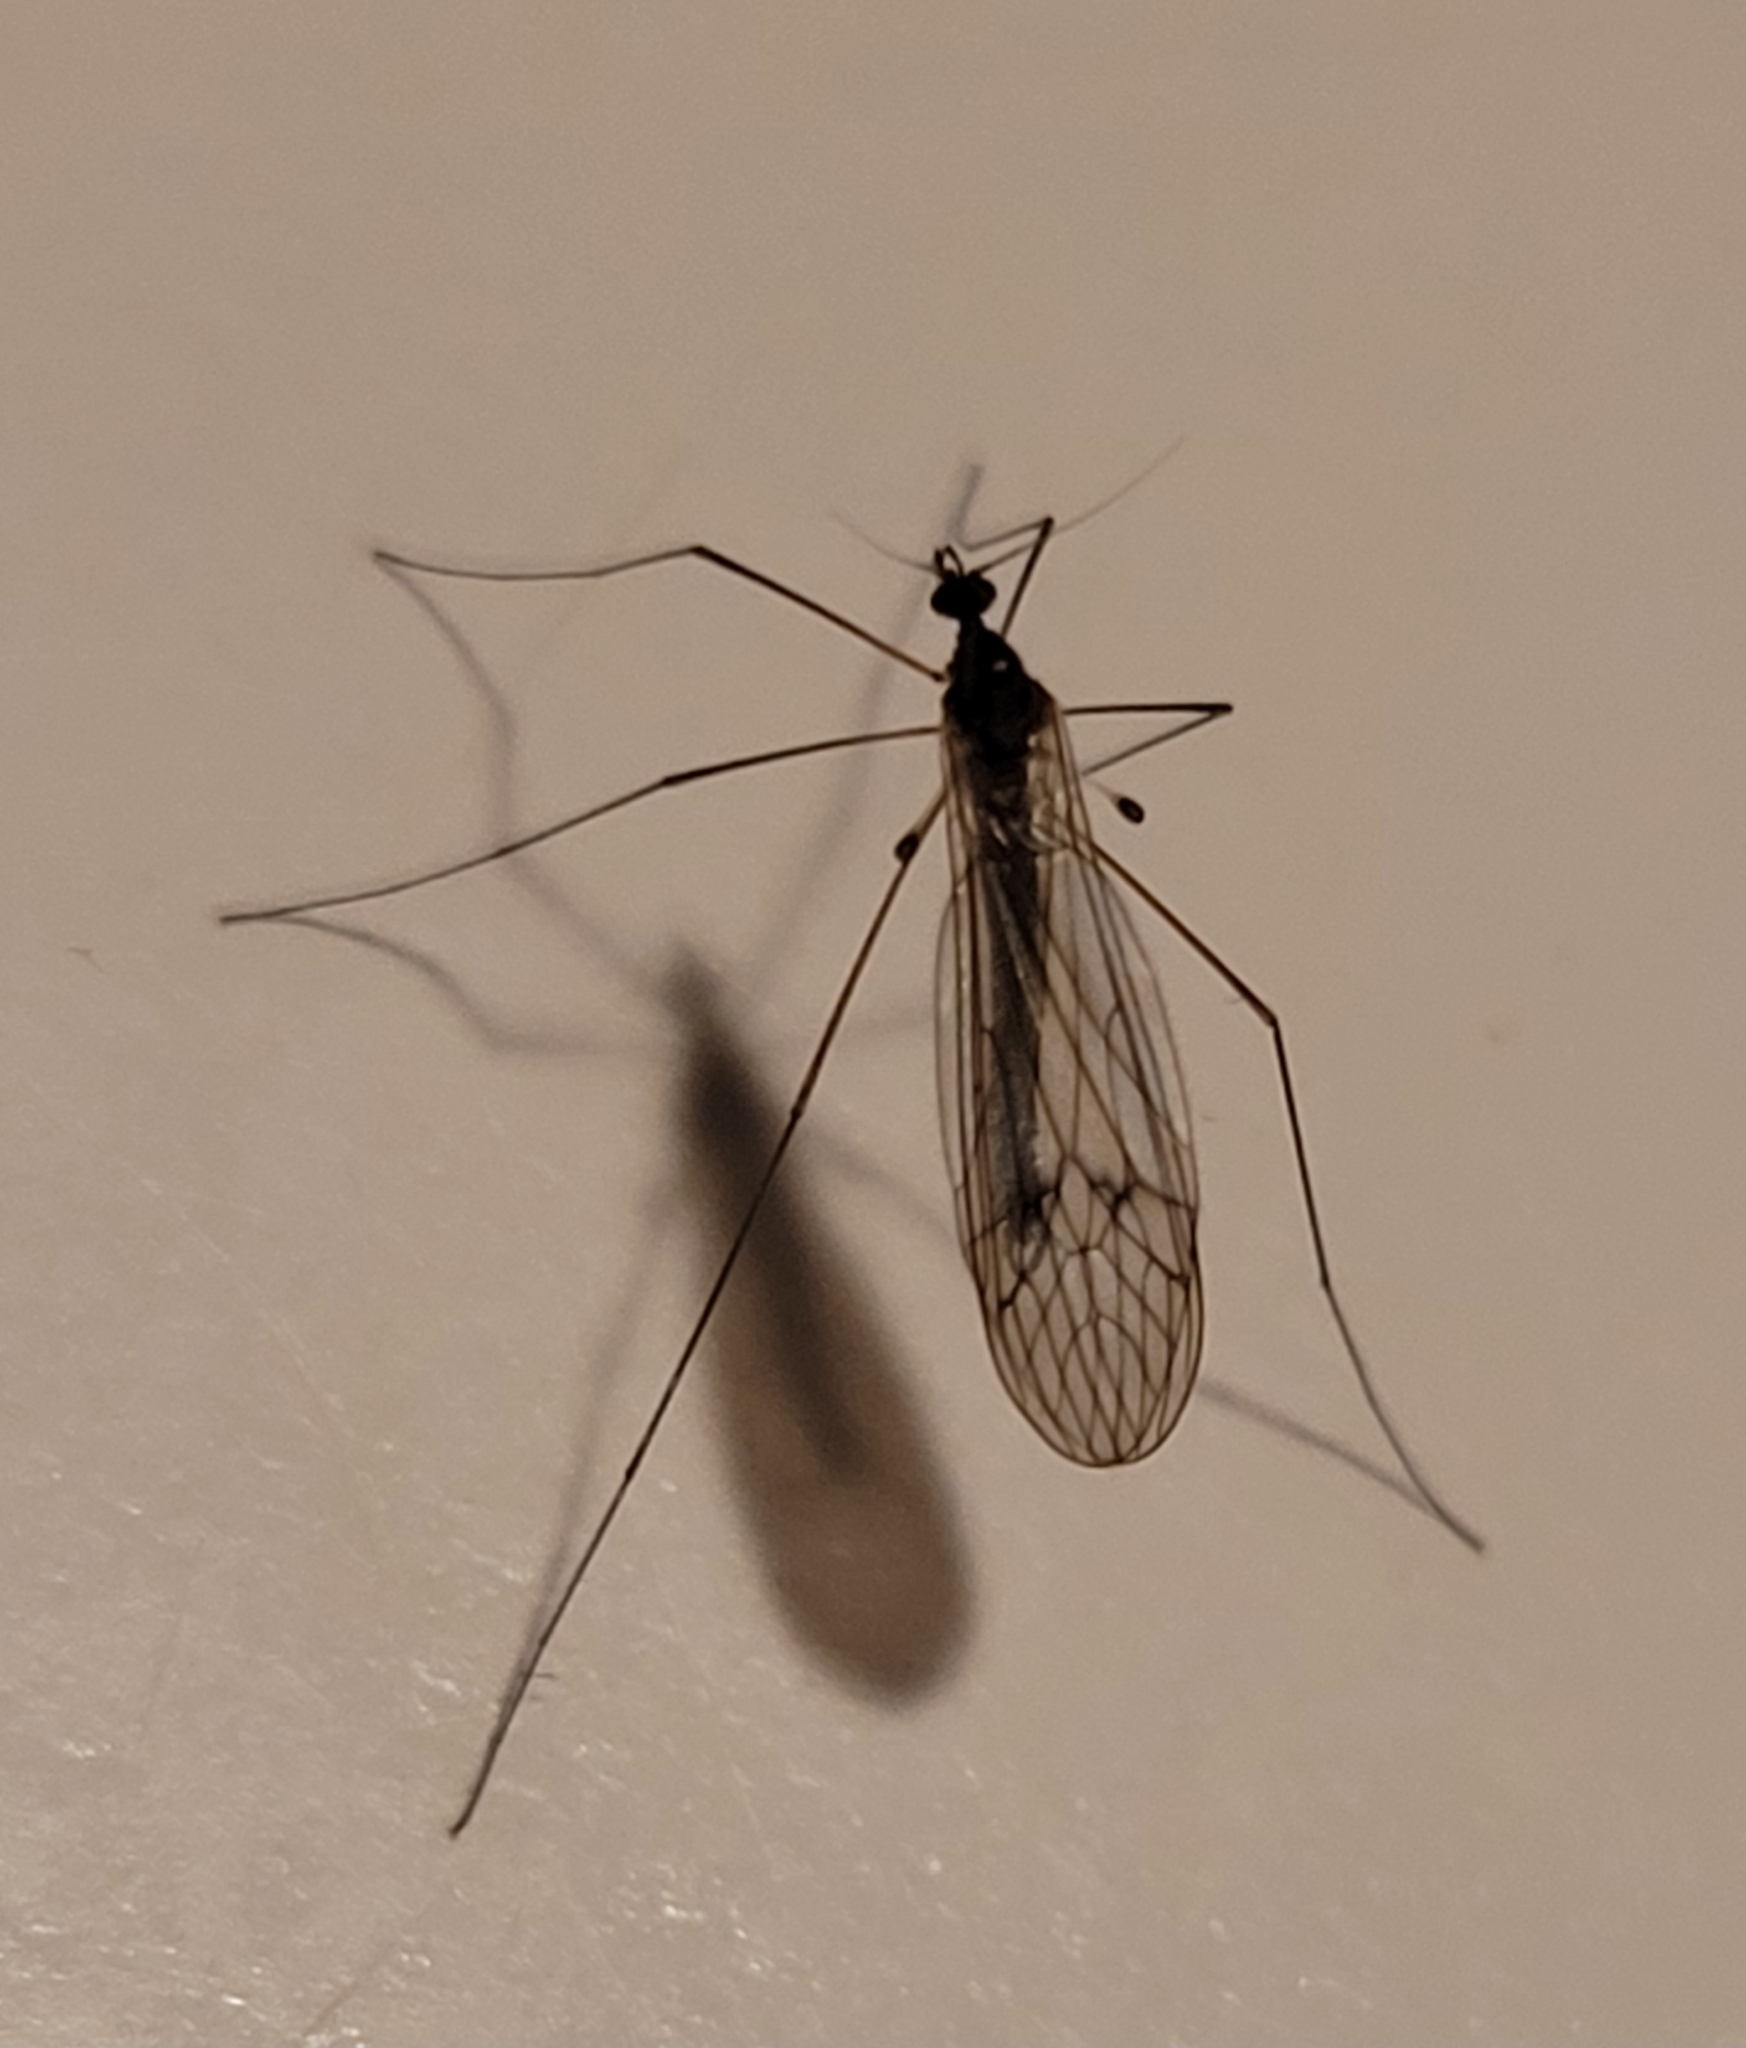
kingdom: Animalia
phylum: Arthropoda
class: Insecta
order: Diptera
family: Trichoceridae
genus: Trichocera
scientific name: Trichocera annulata
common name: Winter gnat
